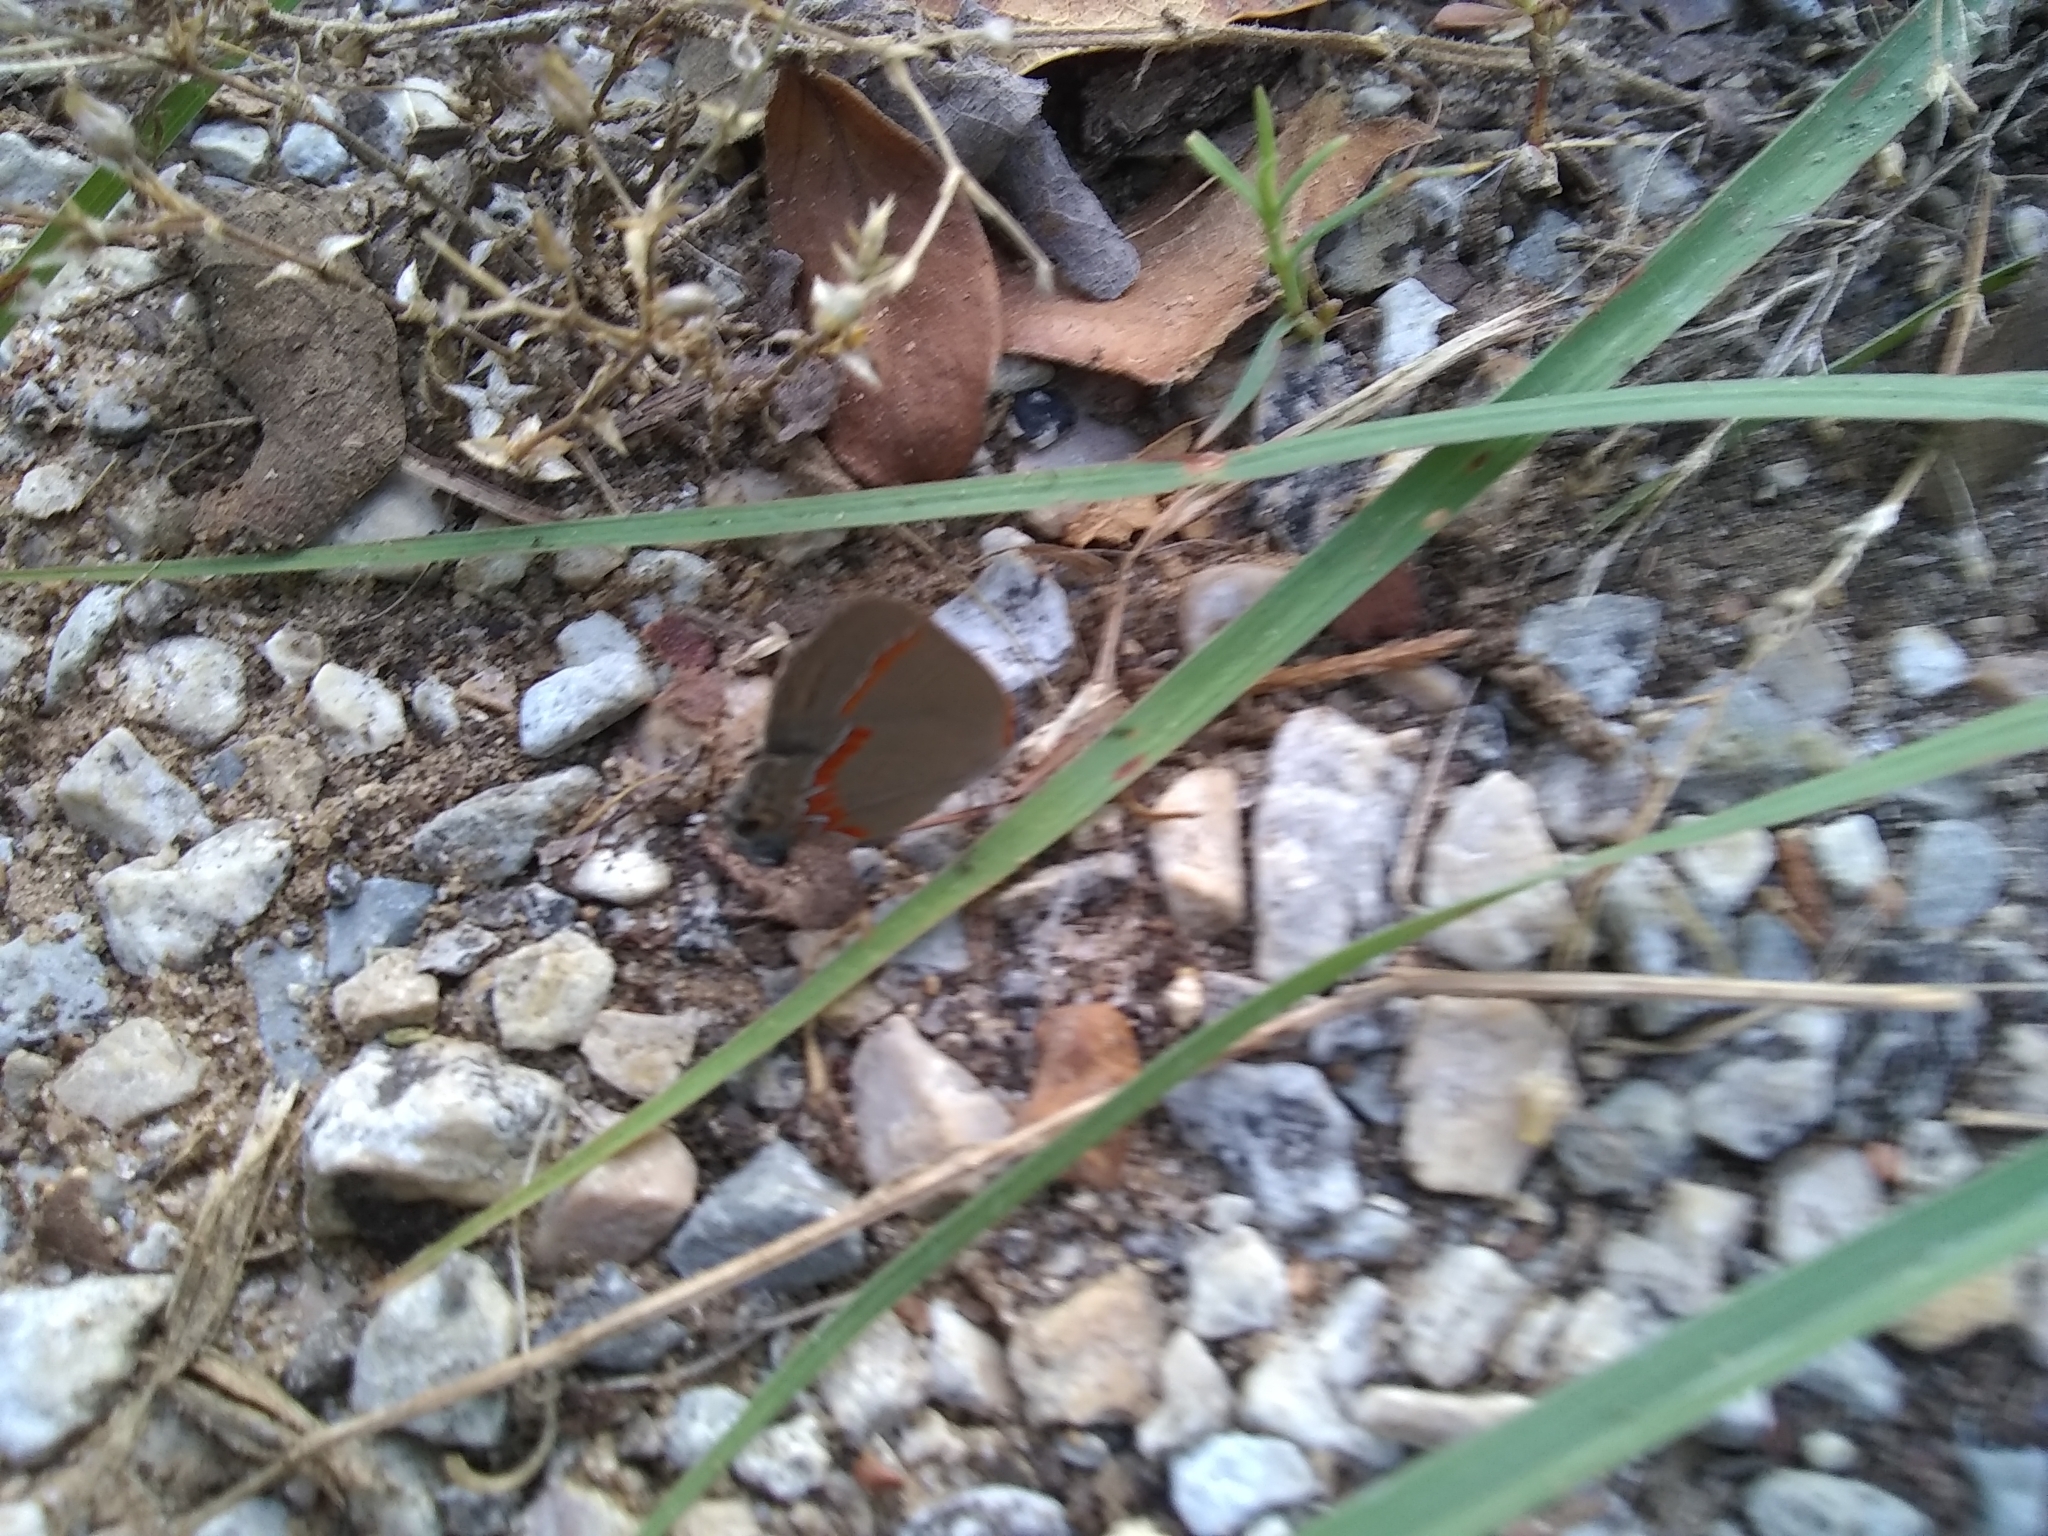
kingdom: Animalia
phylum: Arthropoda
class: Insecta
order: Lepidoptera
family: Lycaenidae
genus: Calycopis
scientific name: Calycopis cecrops
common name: Red-banded hairstreak
